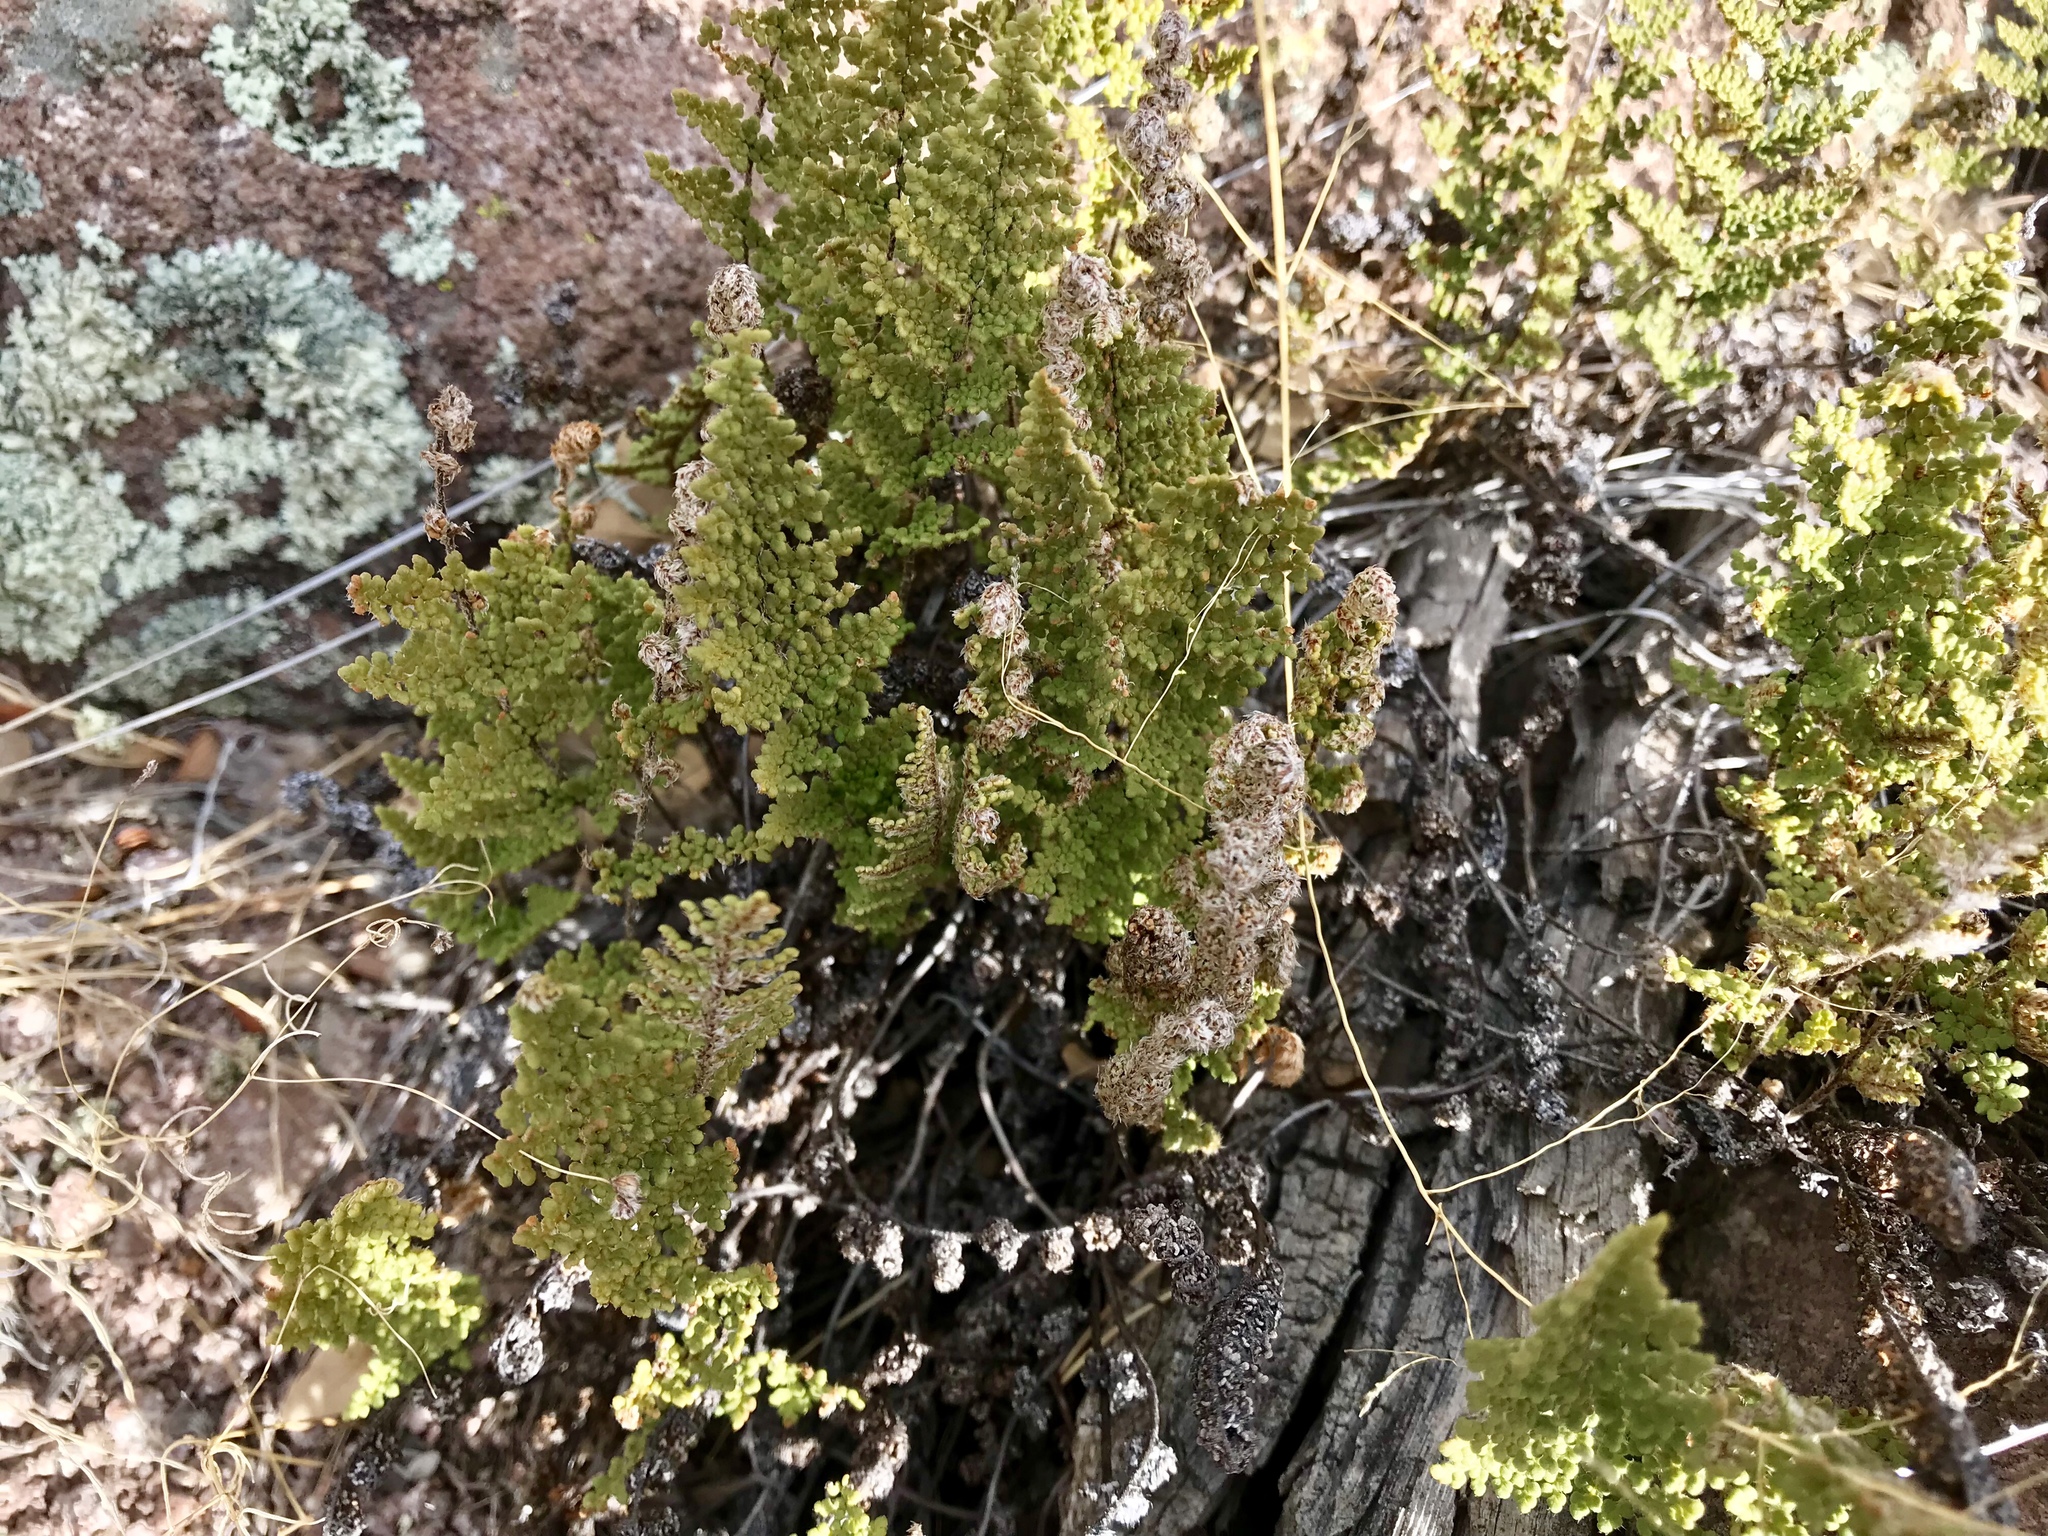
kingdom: Plantae
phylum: Tracheophyta
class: Polypodiopsida
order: Polypodiales
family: Pteridaceae
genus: Myriopteris
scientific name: Myriopteris fendleri
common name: Fendler's lip fern
